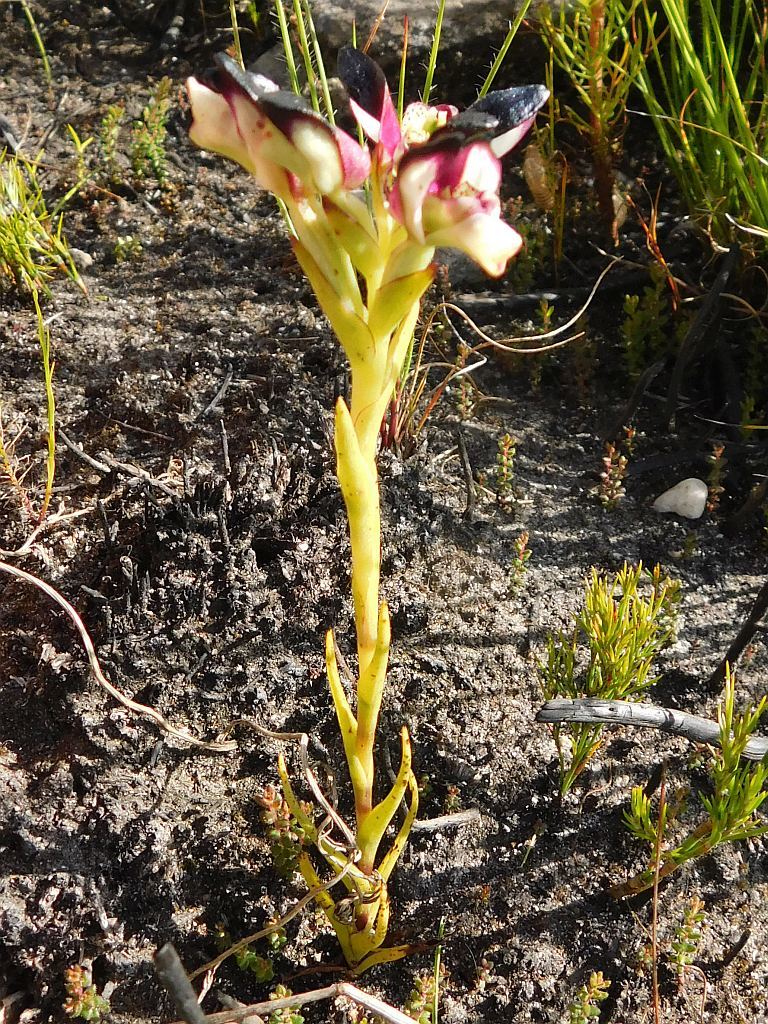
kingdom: Plantae
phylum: Tracheophyta
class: Liliopsida
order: Asparagales
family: Orchidaceae
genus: Disa
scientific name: Disa atricapilla
